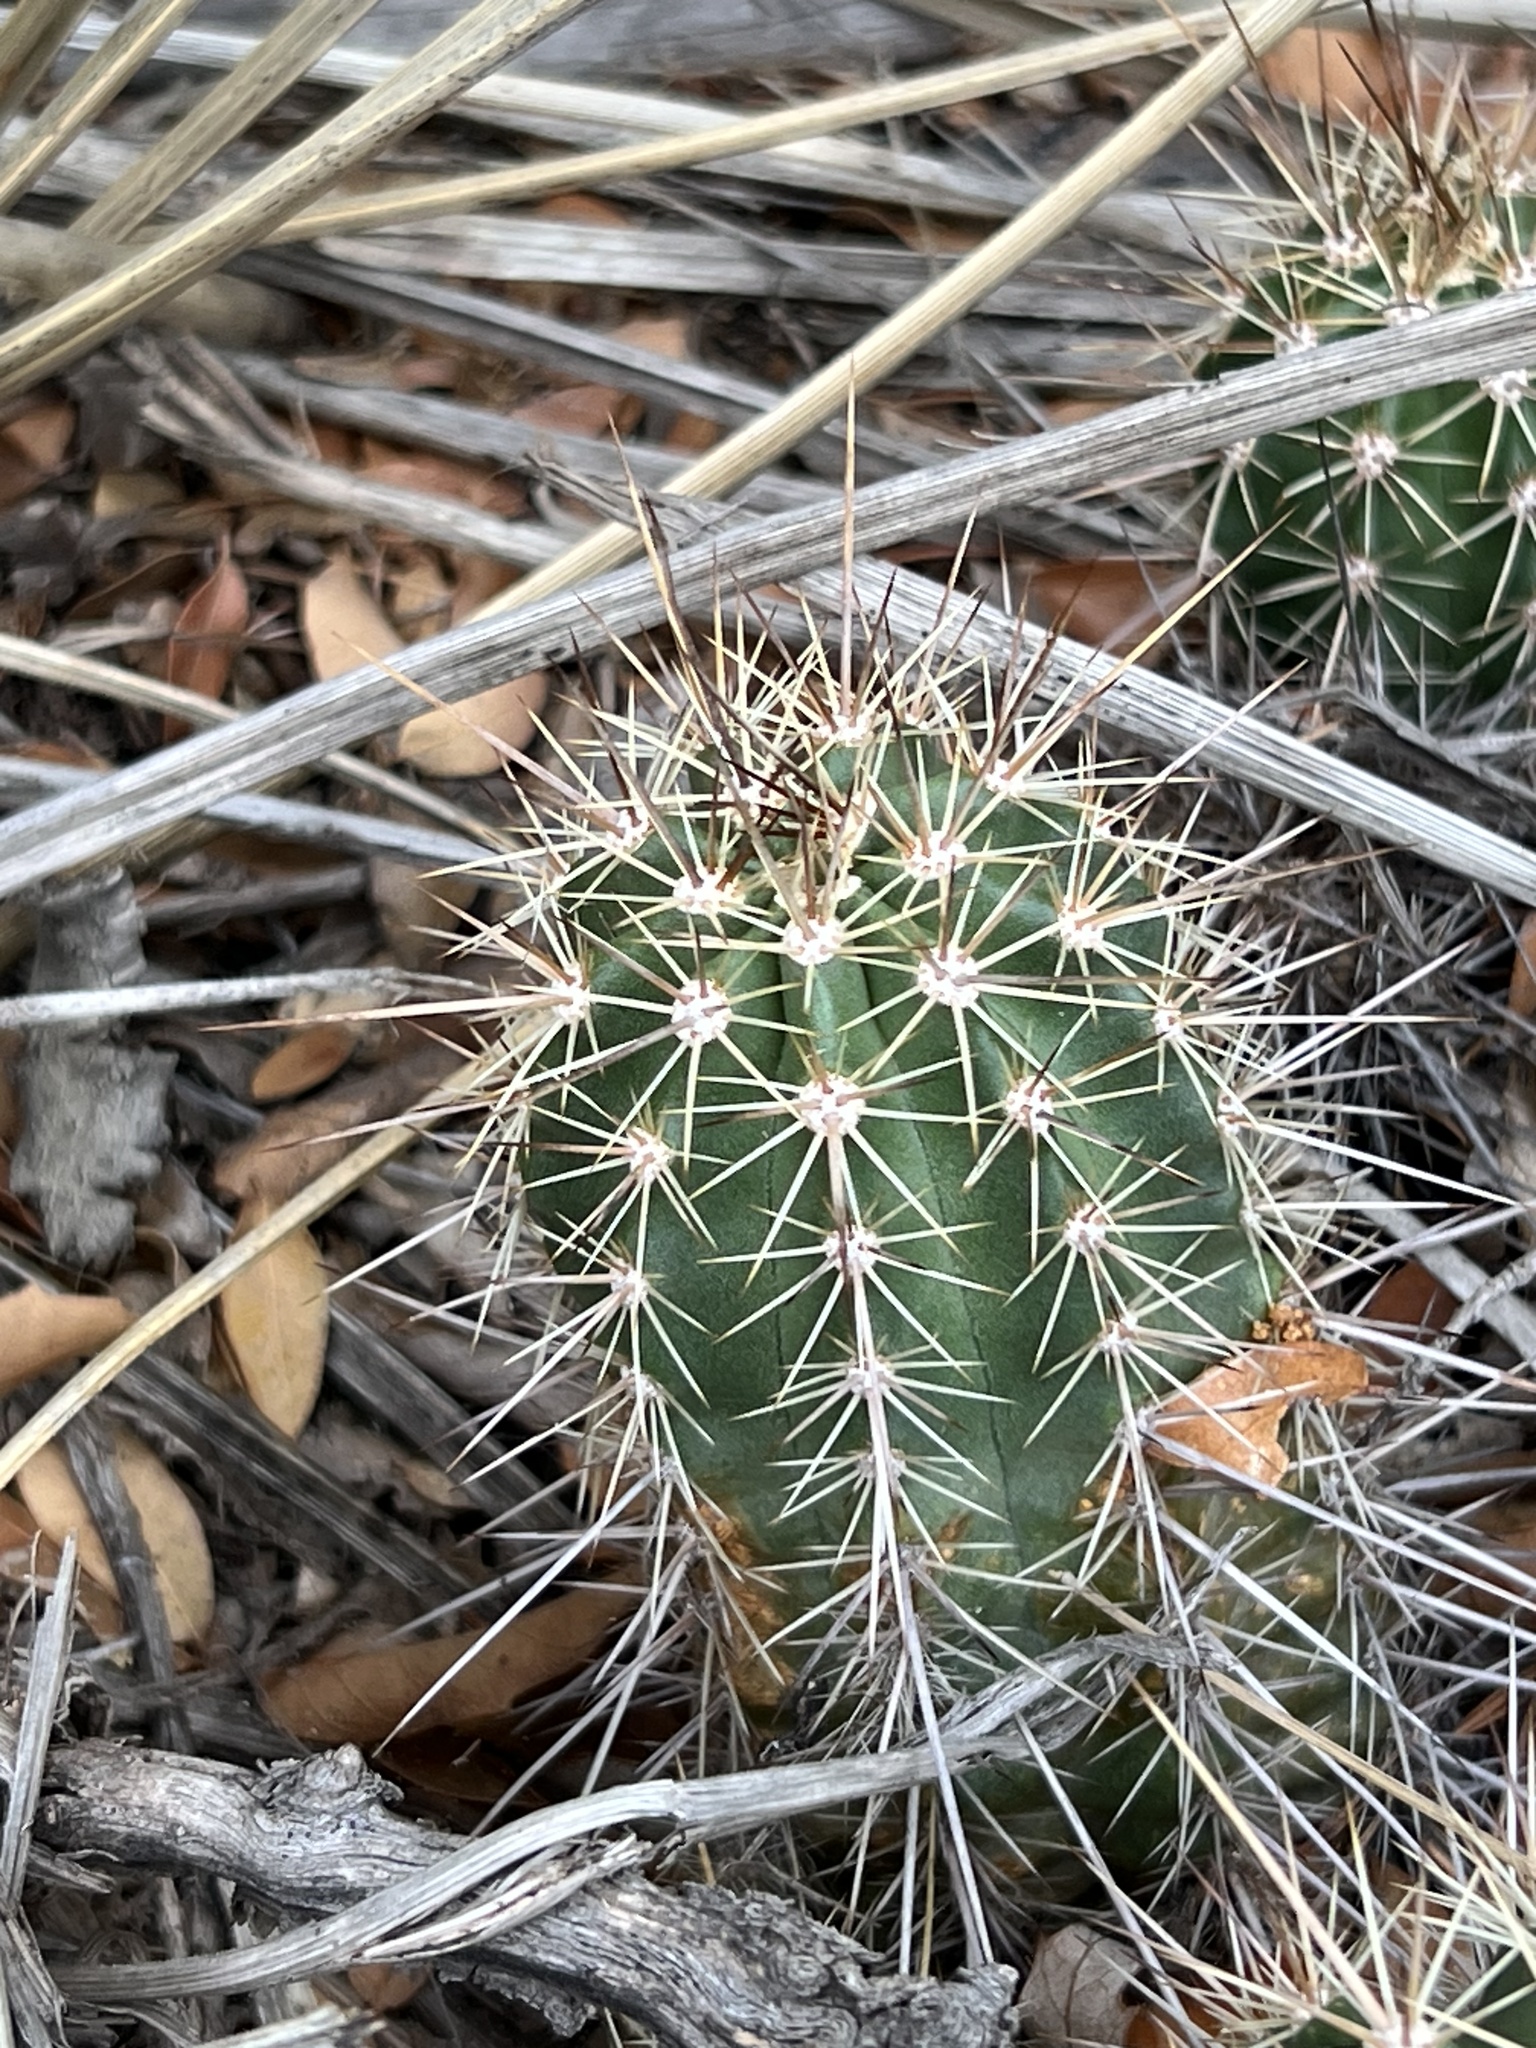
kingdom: Plantae
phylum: Tracheophyta
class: Magnoliopsida
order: Caryophyllales
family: Cactaceae
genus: Echinocereus
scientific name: Echinocereus arizonicus
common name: Arizona hedgehog cactus
